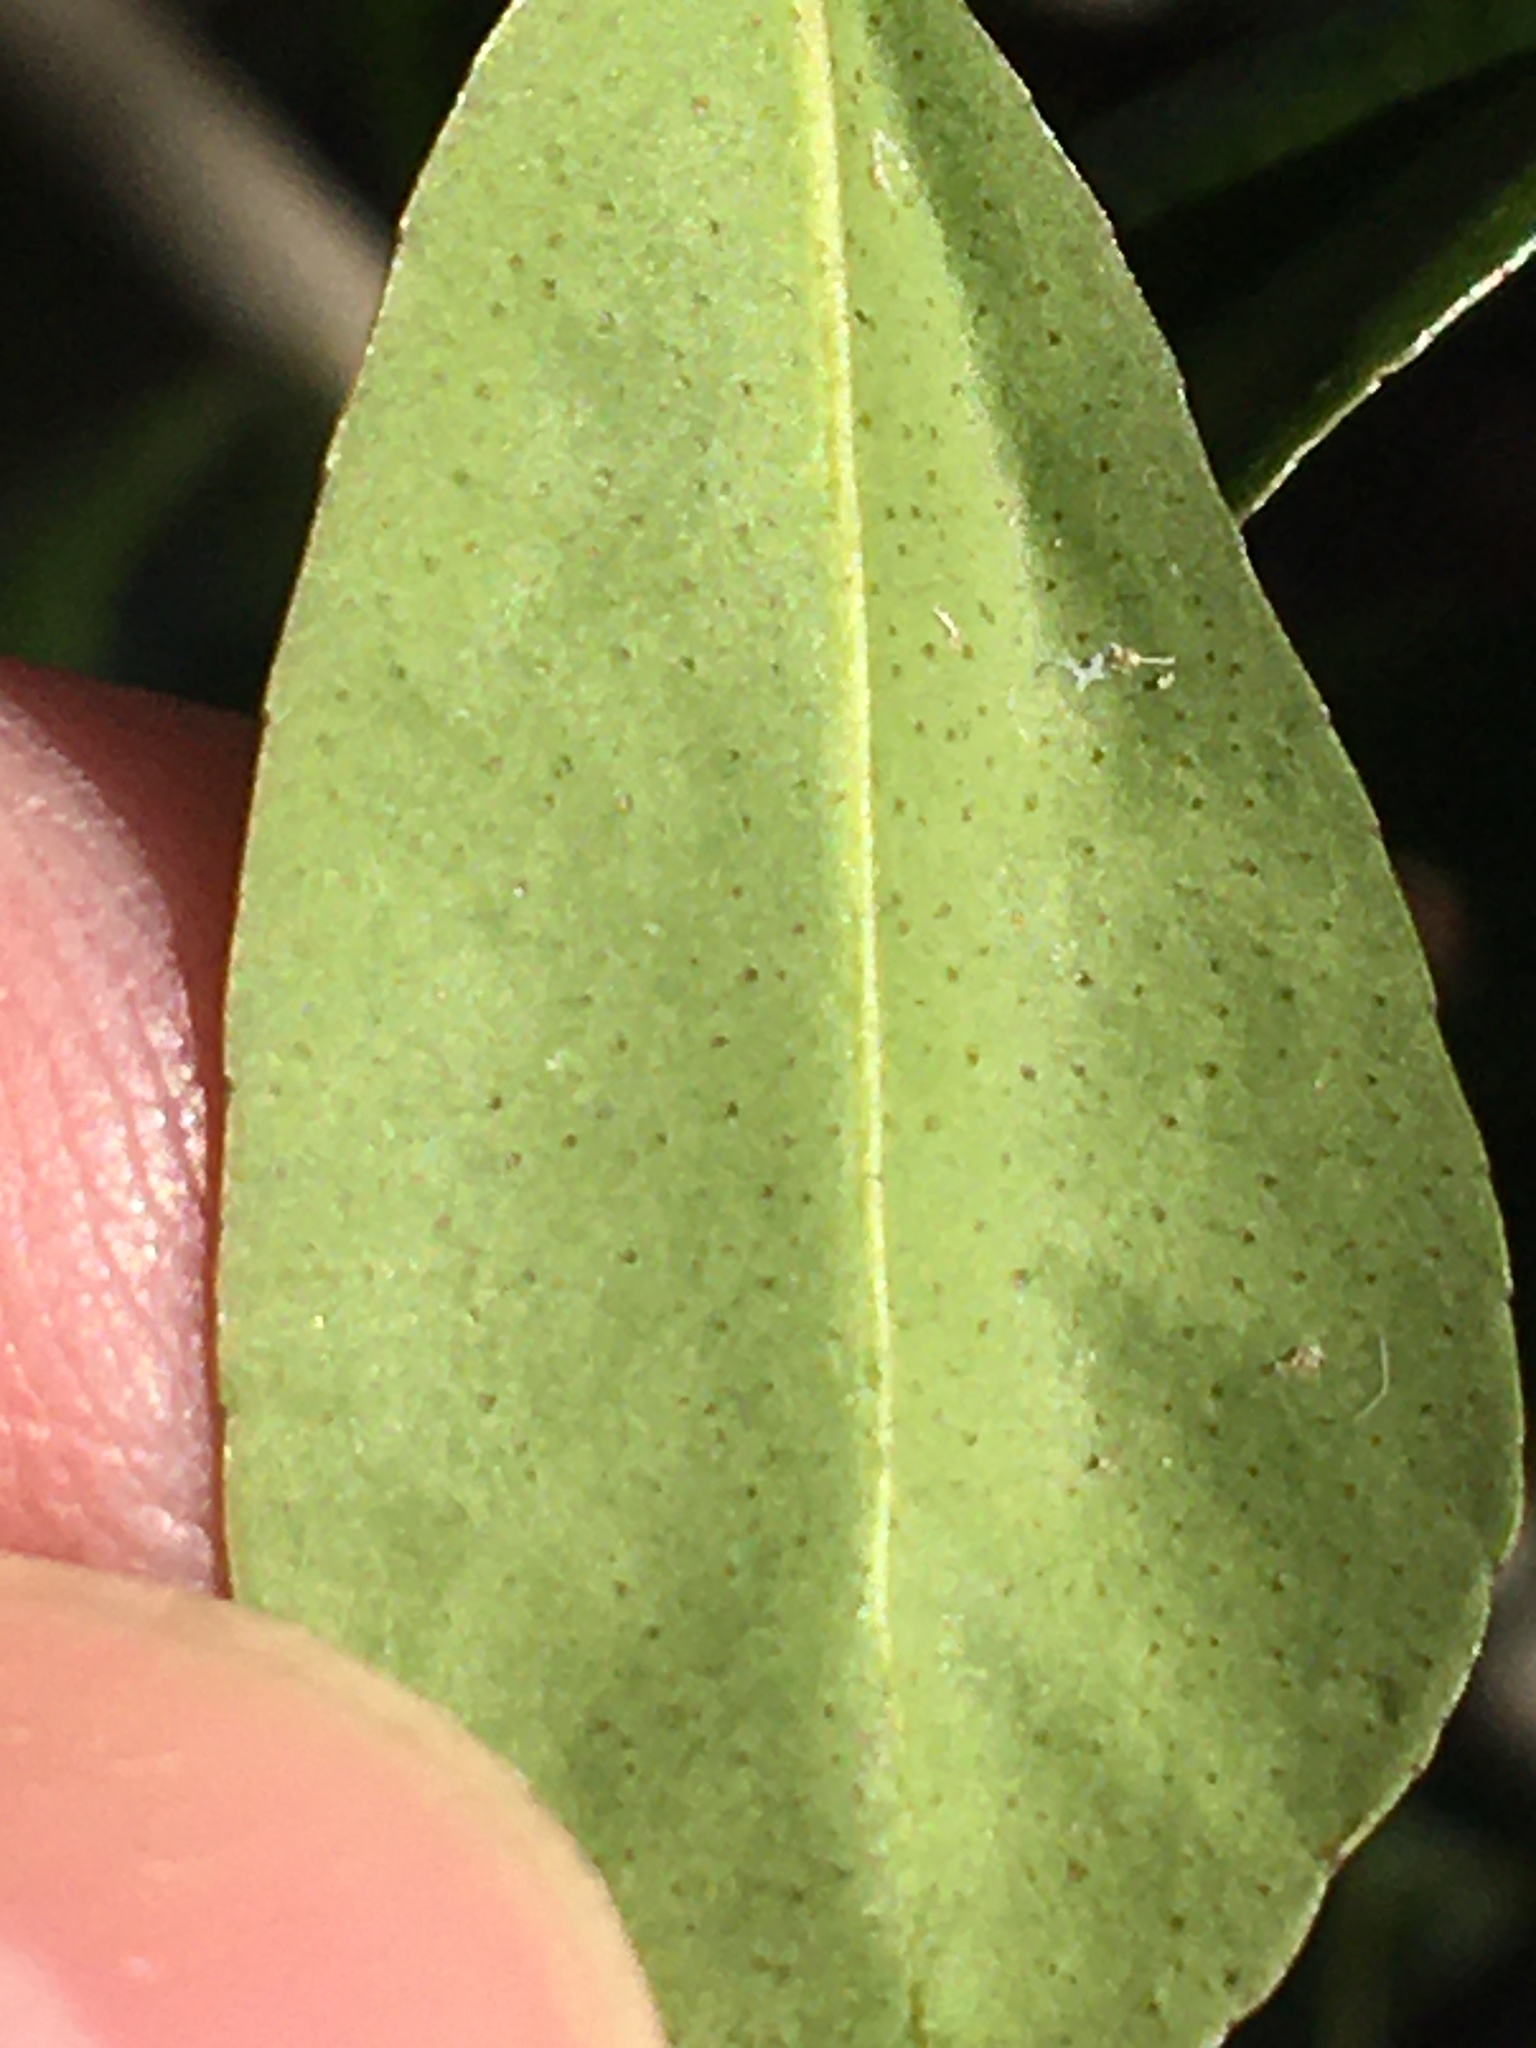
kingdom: Plantae
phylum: Tracheophyta
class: Magnoliopsida
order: Aquifoliales
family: Aquifoliaceae
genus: Ilex
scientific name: Ilex crenata
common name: Japanese holly
